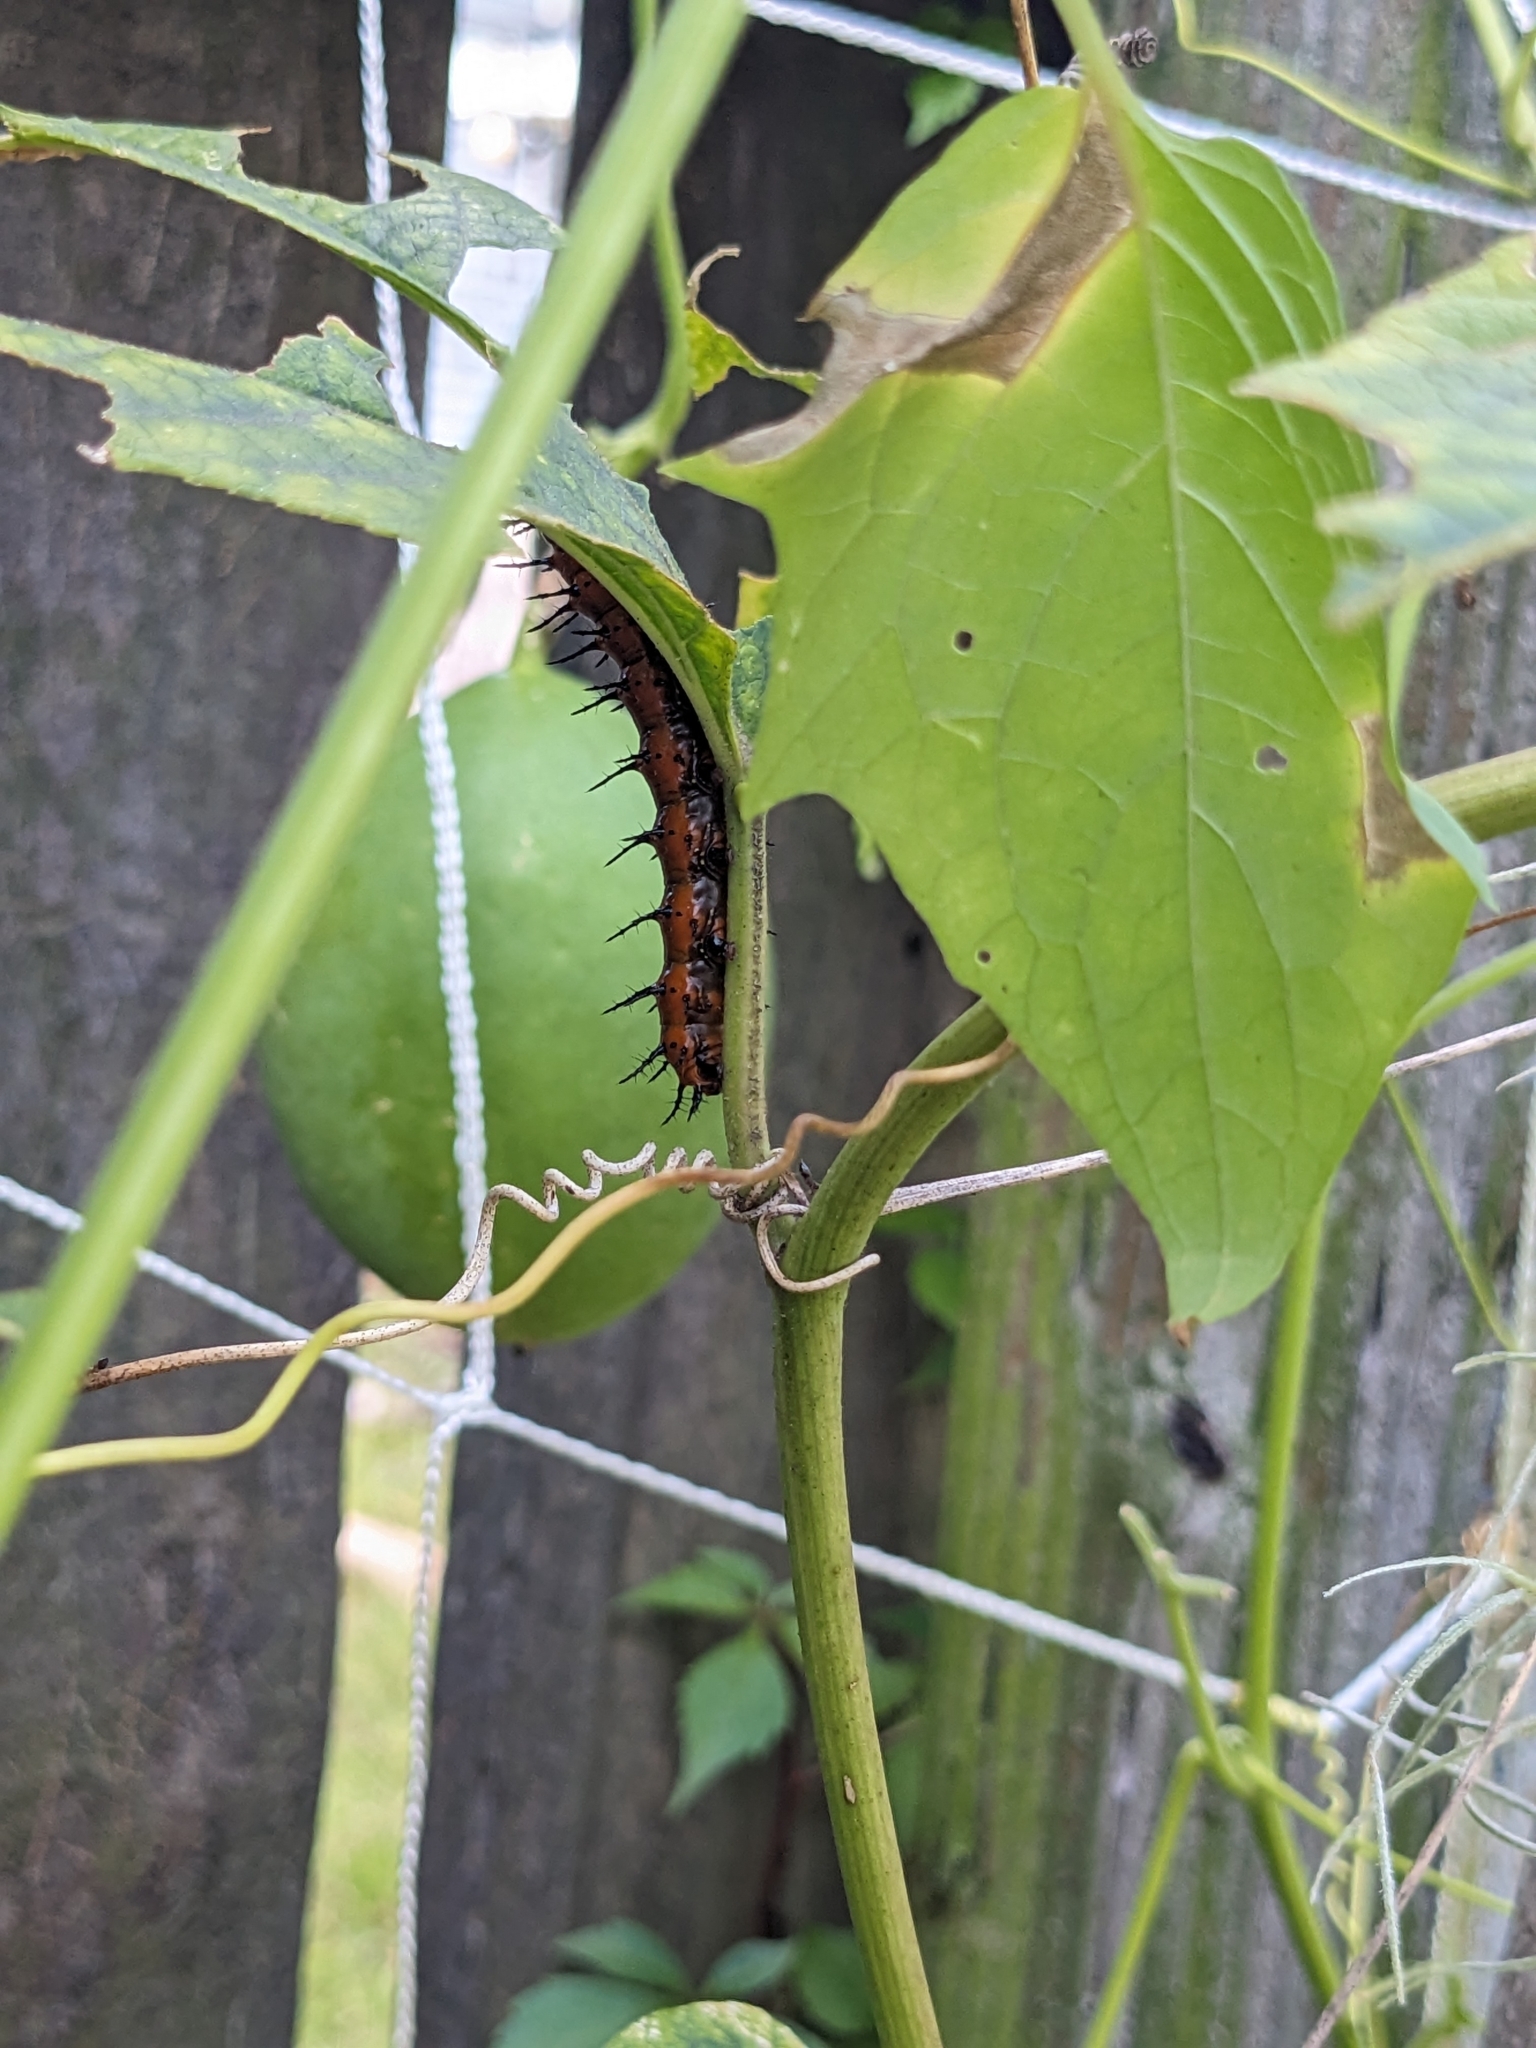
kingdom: Animalia
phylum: Arthropoda
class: Insecta
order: Lepidoptera
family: Nymphalidae
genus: Dione
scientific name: Dione vanillae
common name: Gulf fritillary
